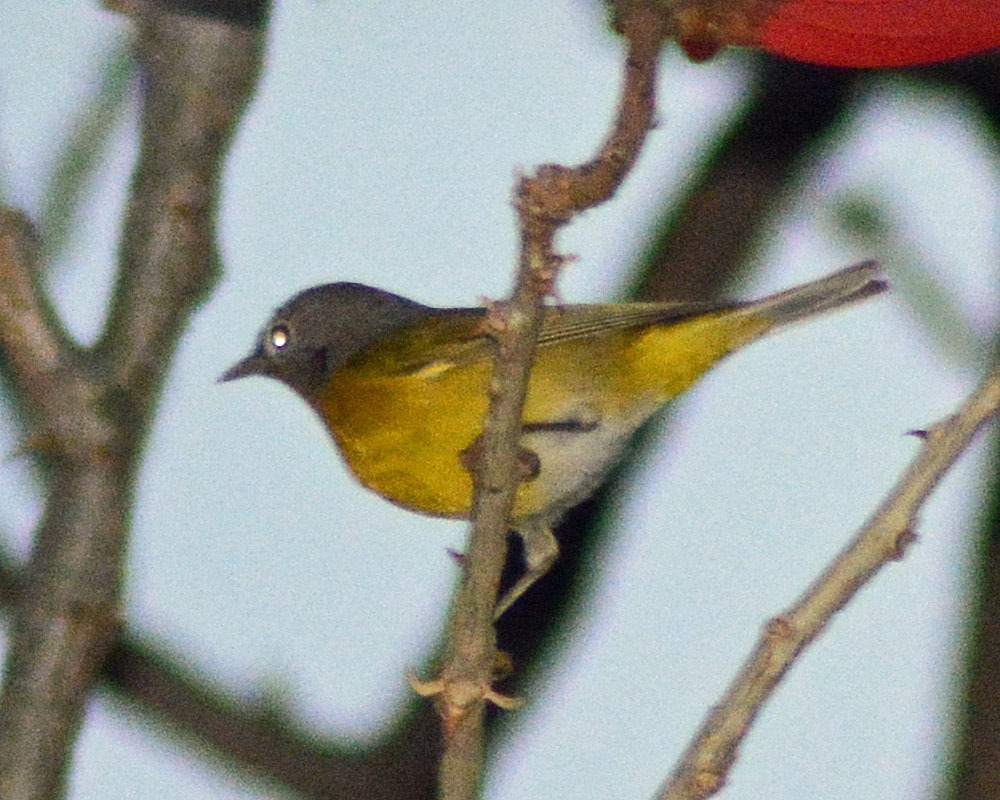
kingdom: Animalia
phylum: Chordata
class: Aves
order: Passeriformes
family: Parulidae
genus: Leiothlypis
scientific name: Leiothlypis ruficapilla
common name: Nashville warbler
